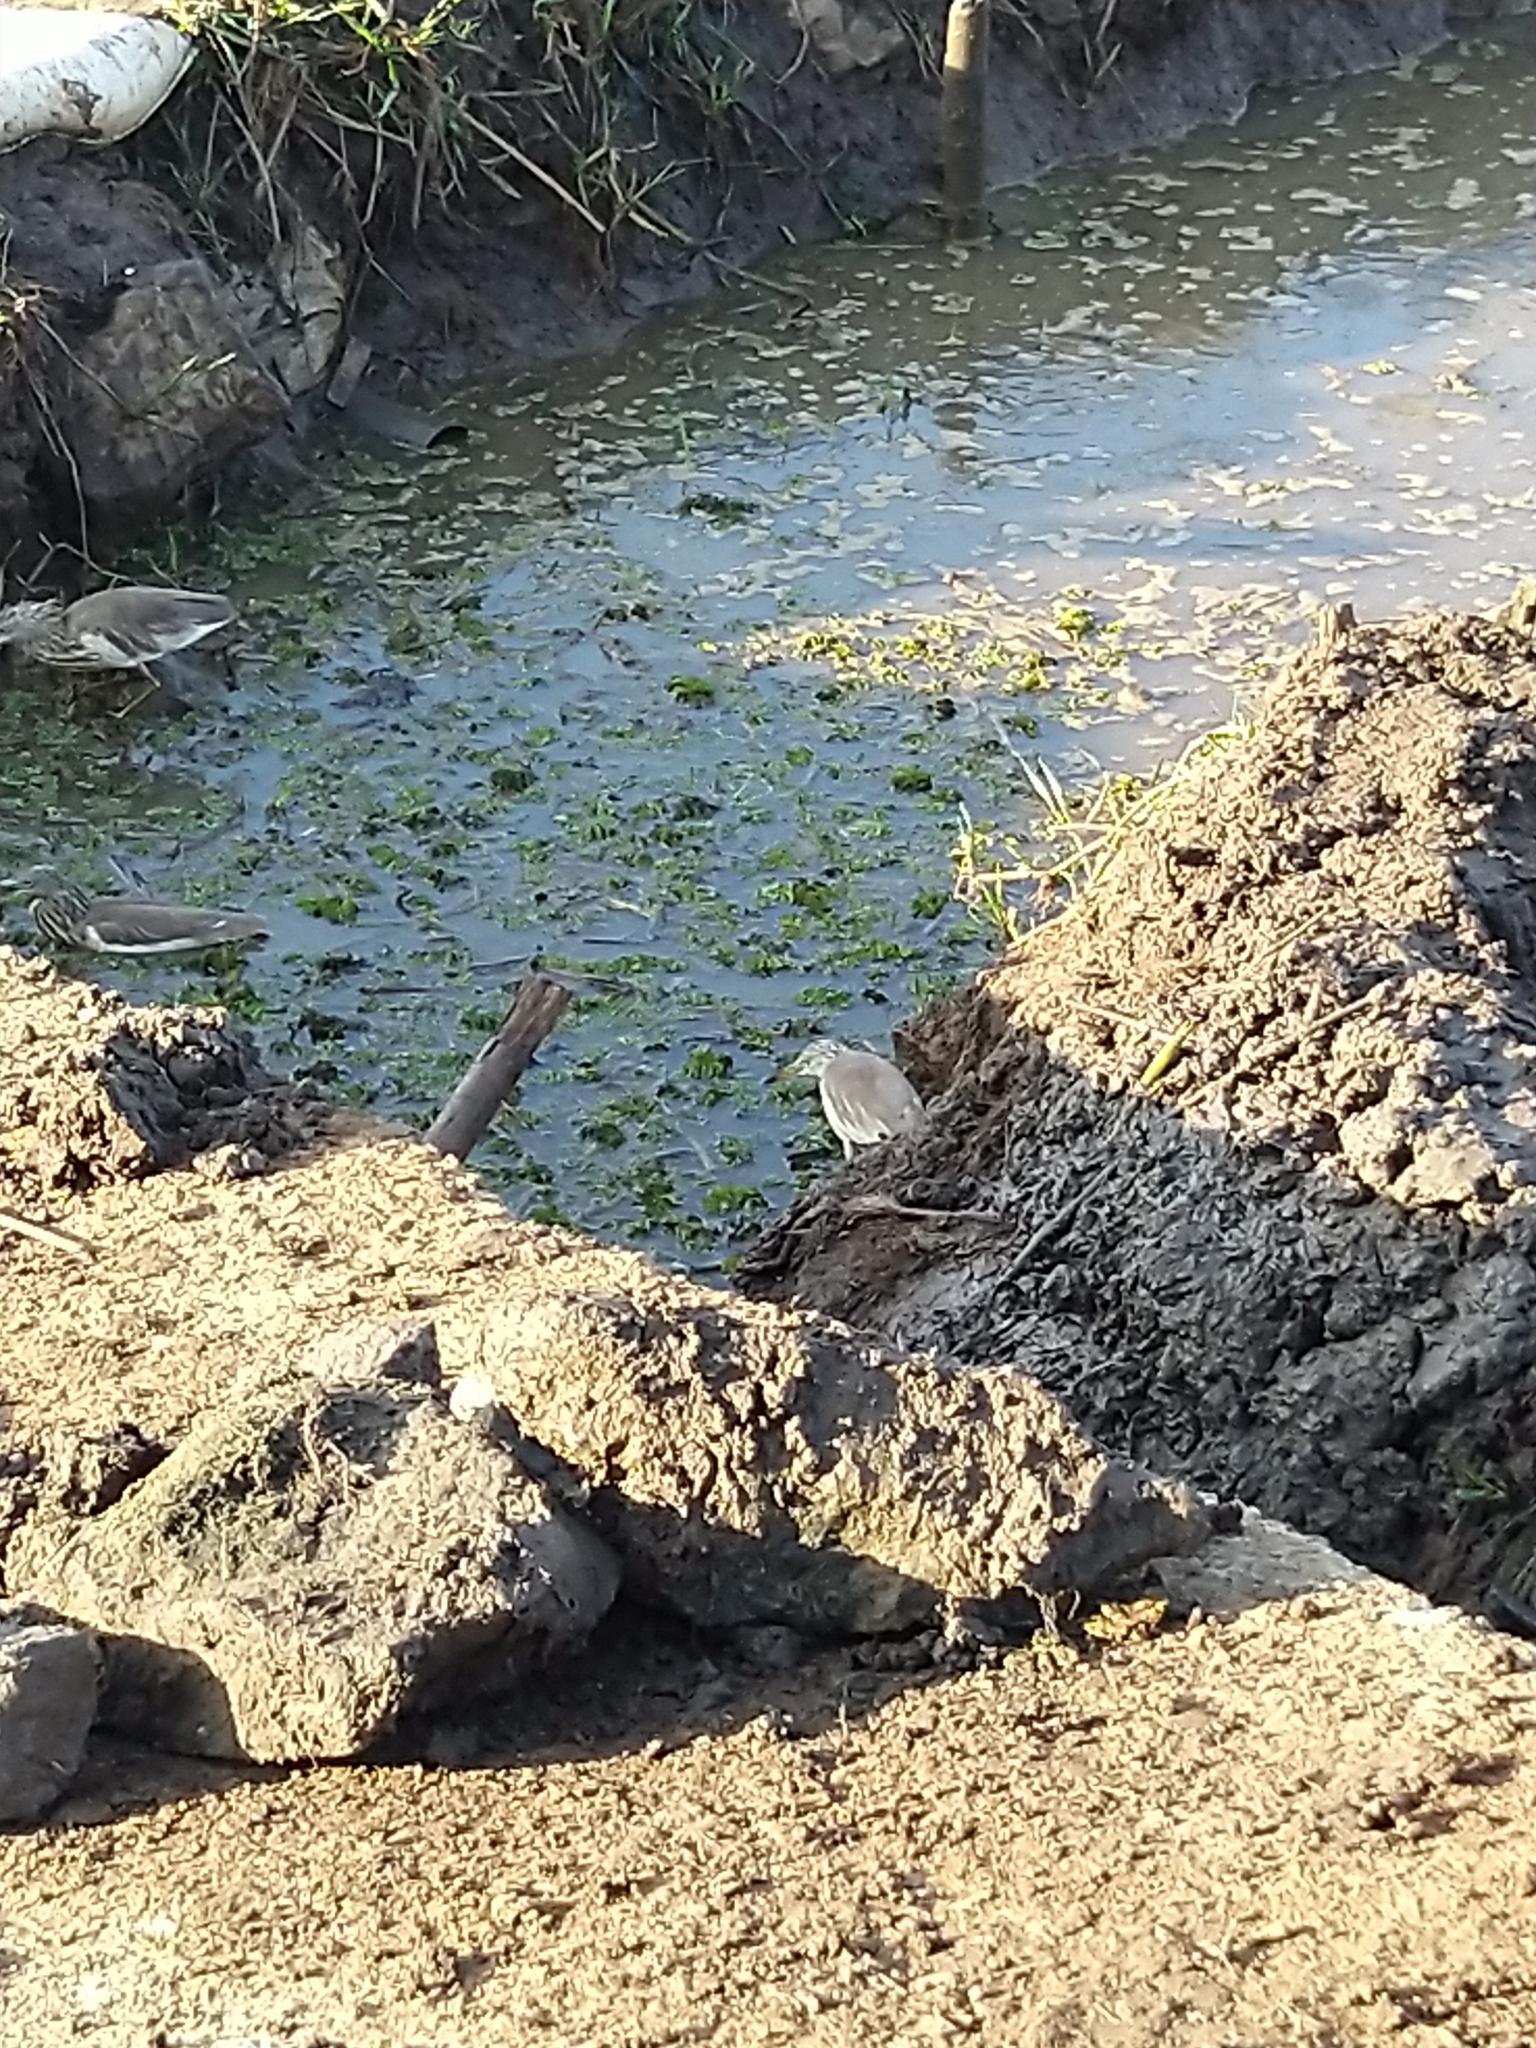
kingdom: Animalia
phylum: Chordata
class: Aves
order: Pelecaniformes
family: Ardeidae
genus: Ardeola
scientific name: Ardeola grayii
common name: Indian pond heron
